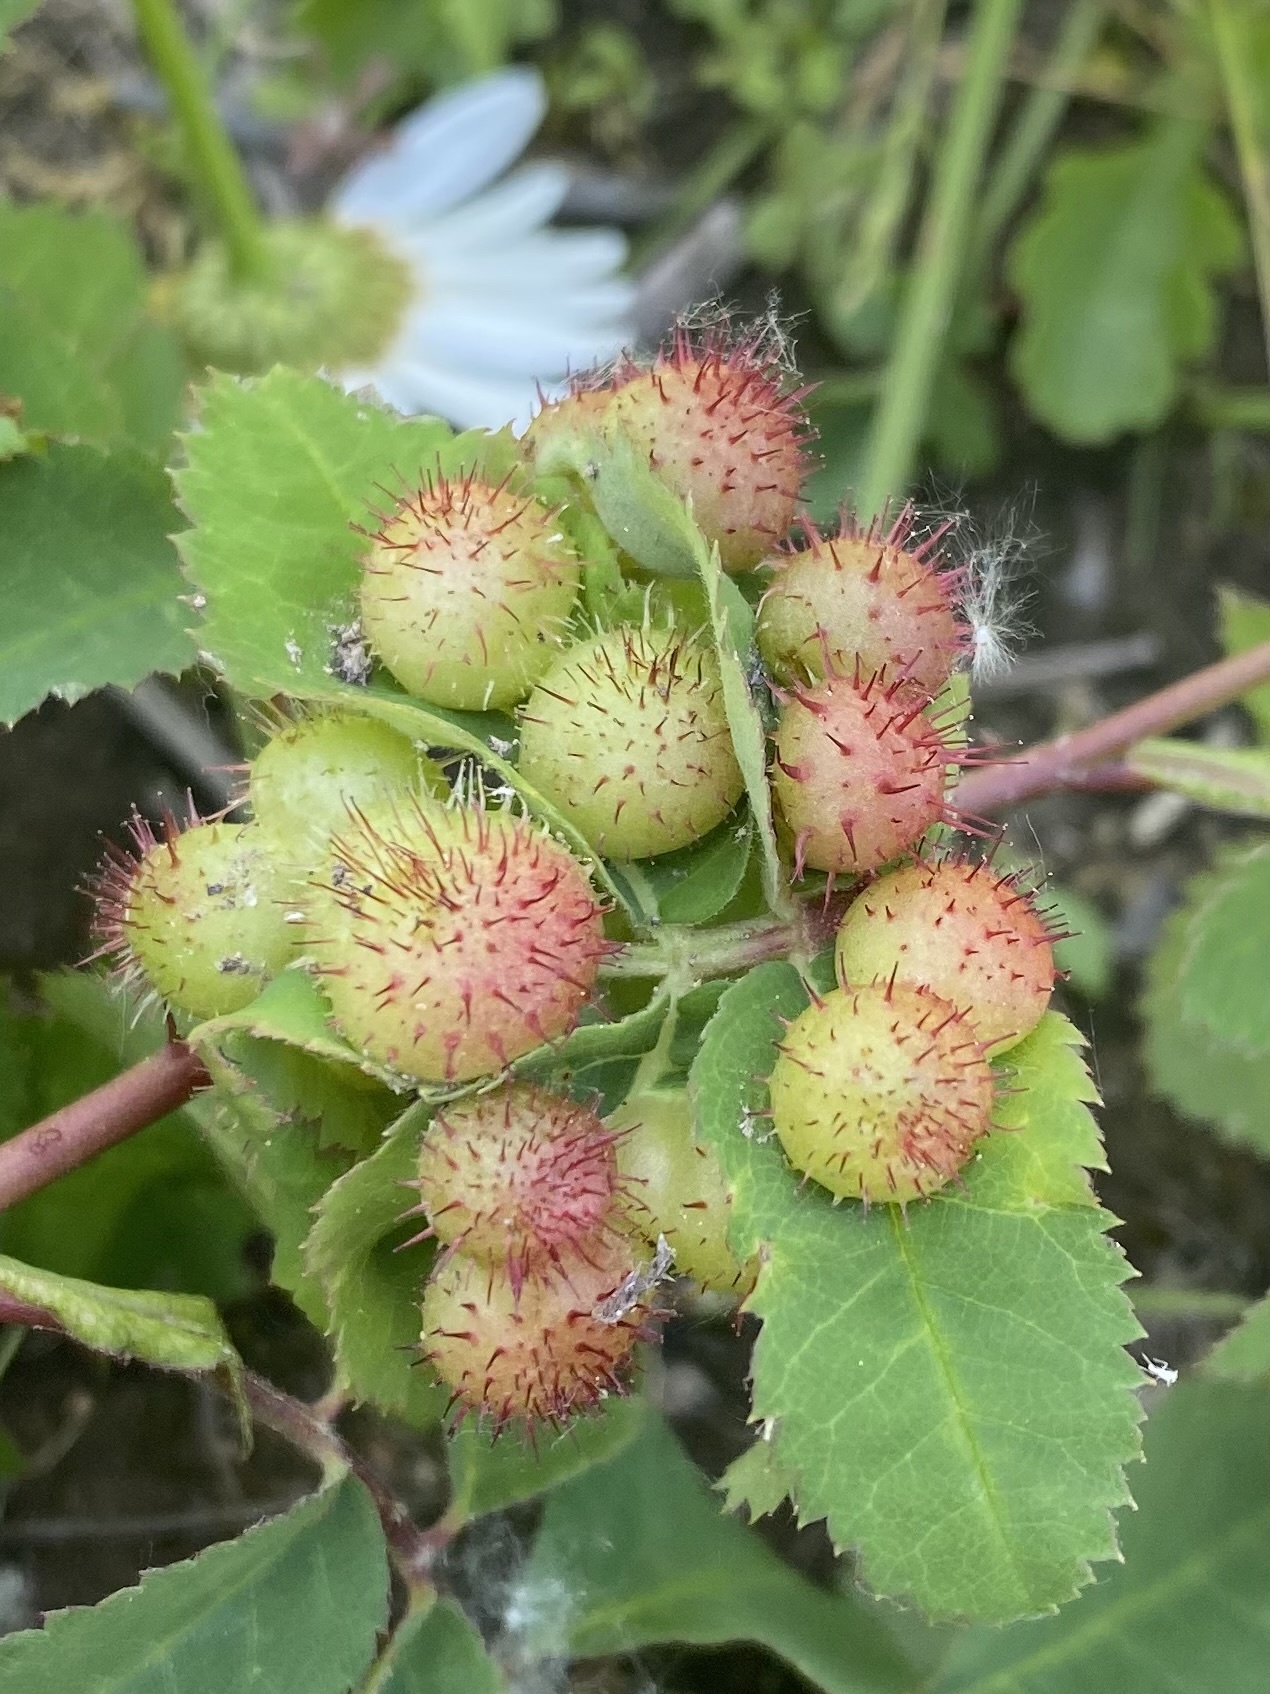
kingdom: Animalia
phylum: Arthropoda
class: Insecta
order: Hymenoptera
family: Cynipidae
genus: Diplolepis
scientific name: Diplolepis polita
